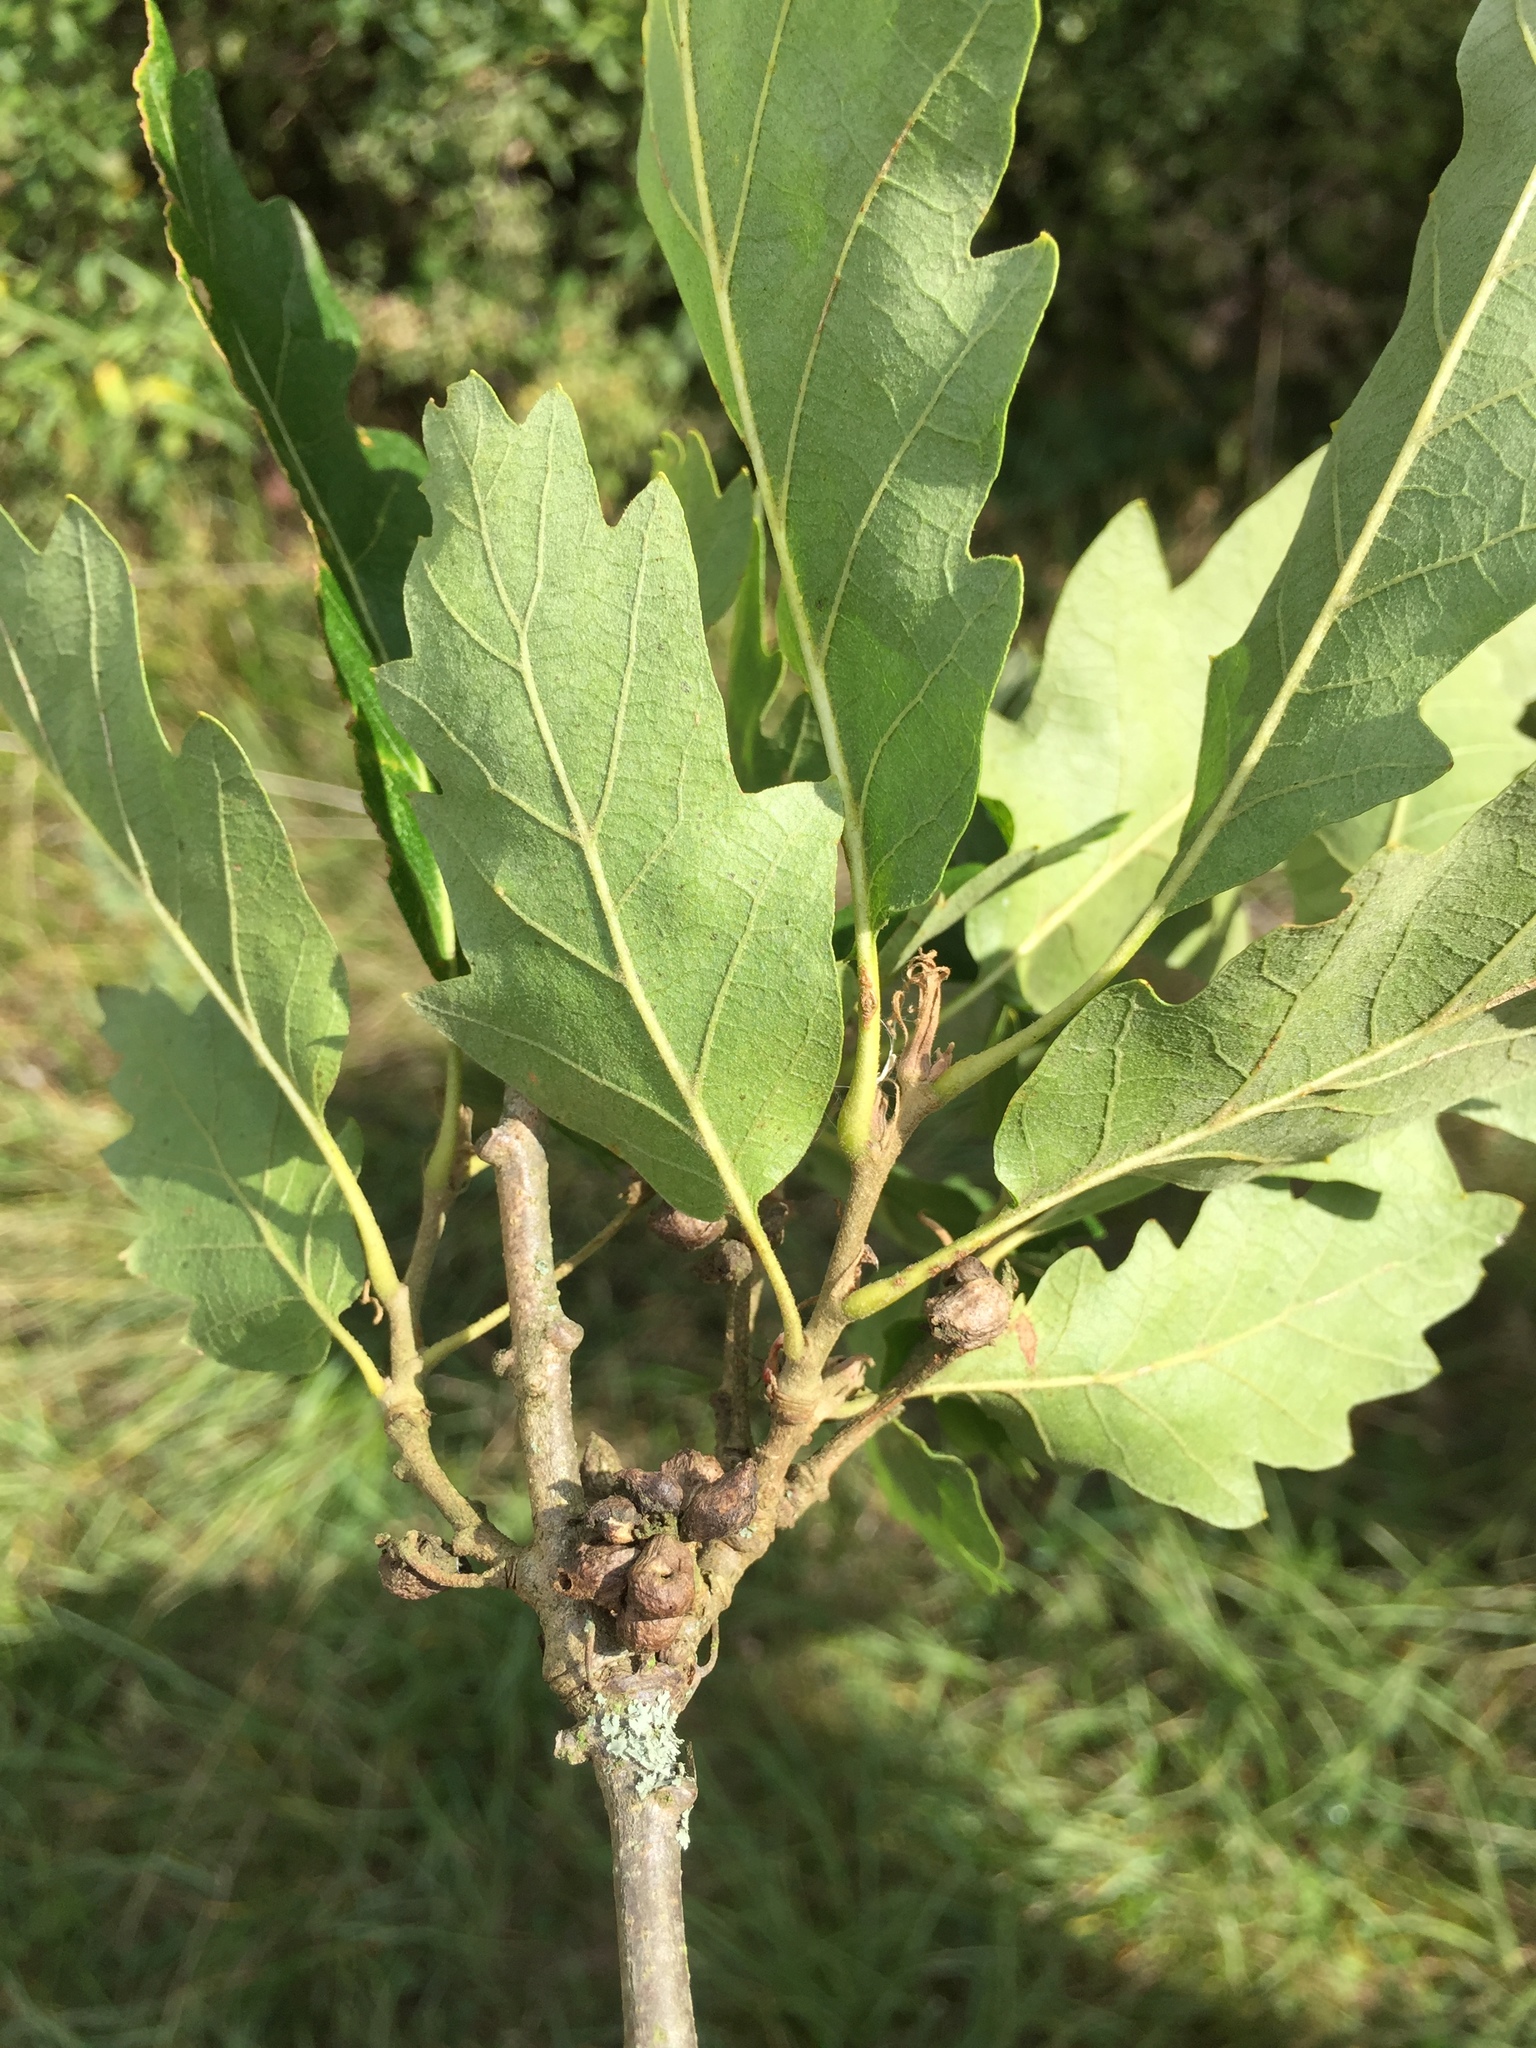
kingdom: Animalia
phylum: Arthropoda
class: Insecta
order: Hymenoptera
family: Cynipidae
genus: Andricus
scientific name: Andricus grossulariae
